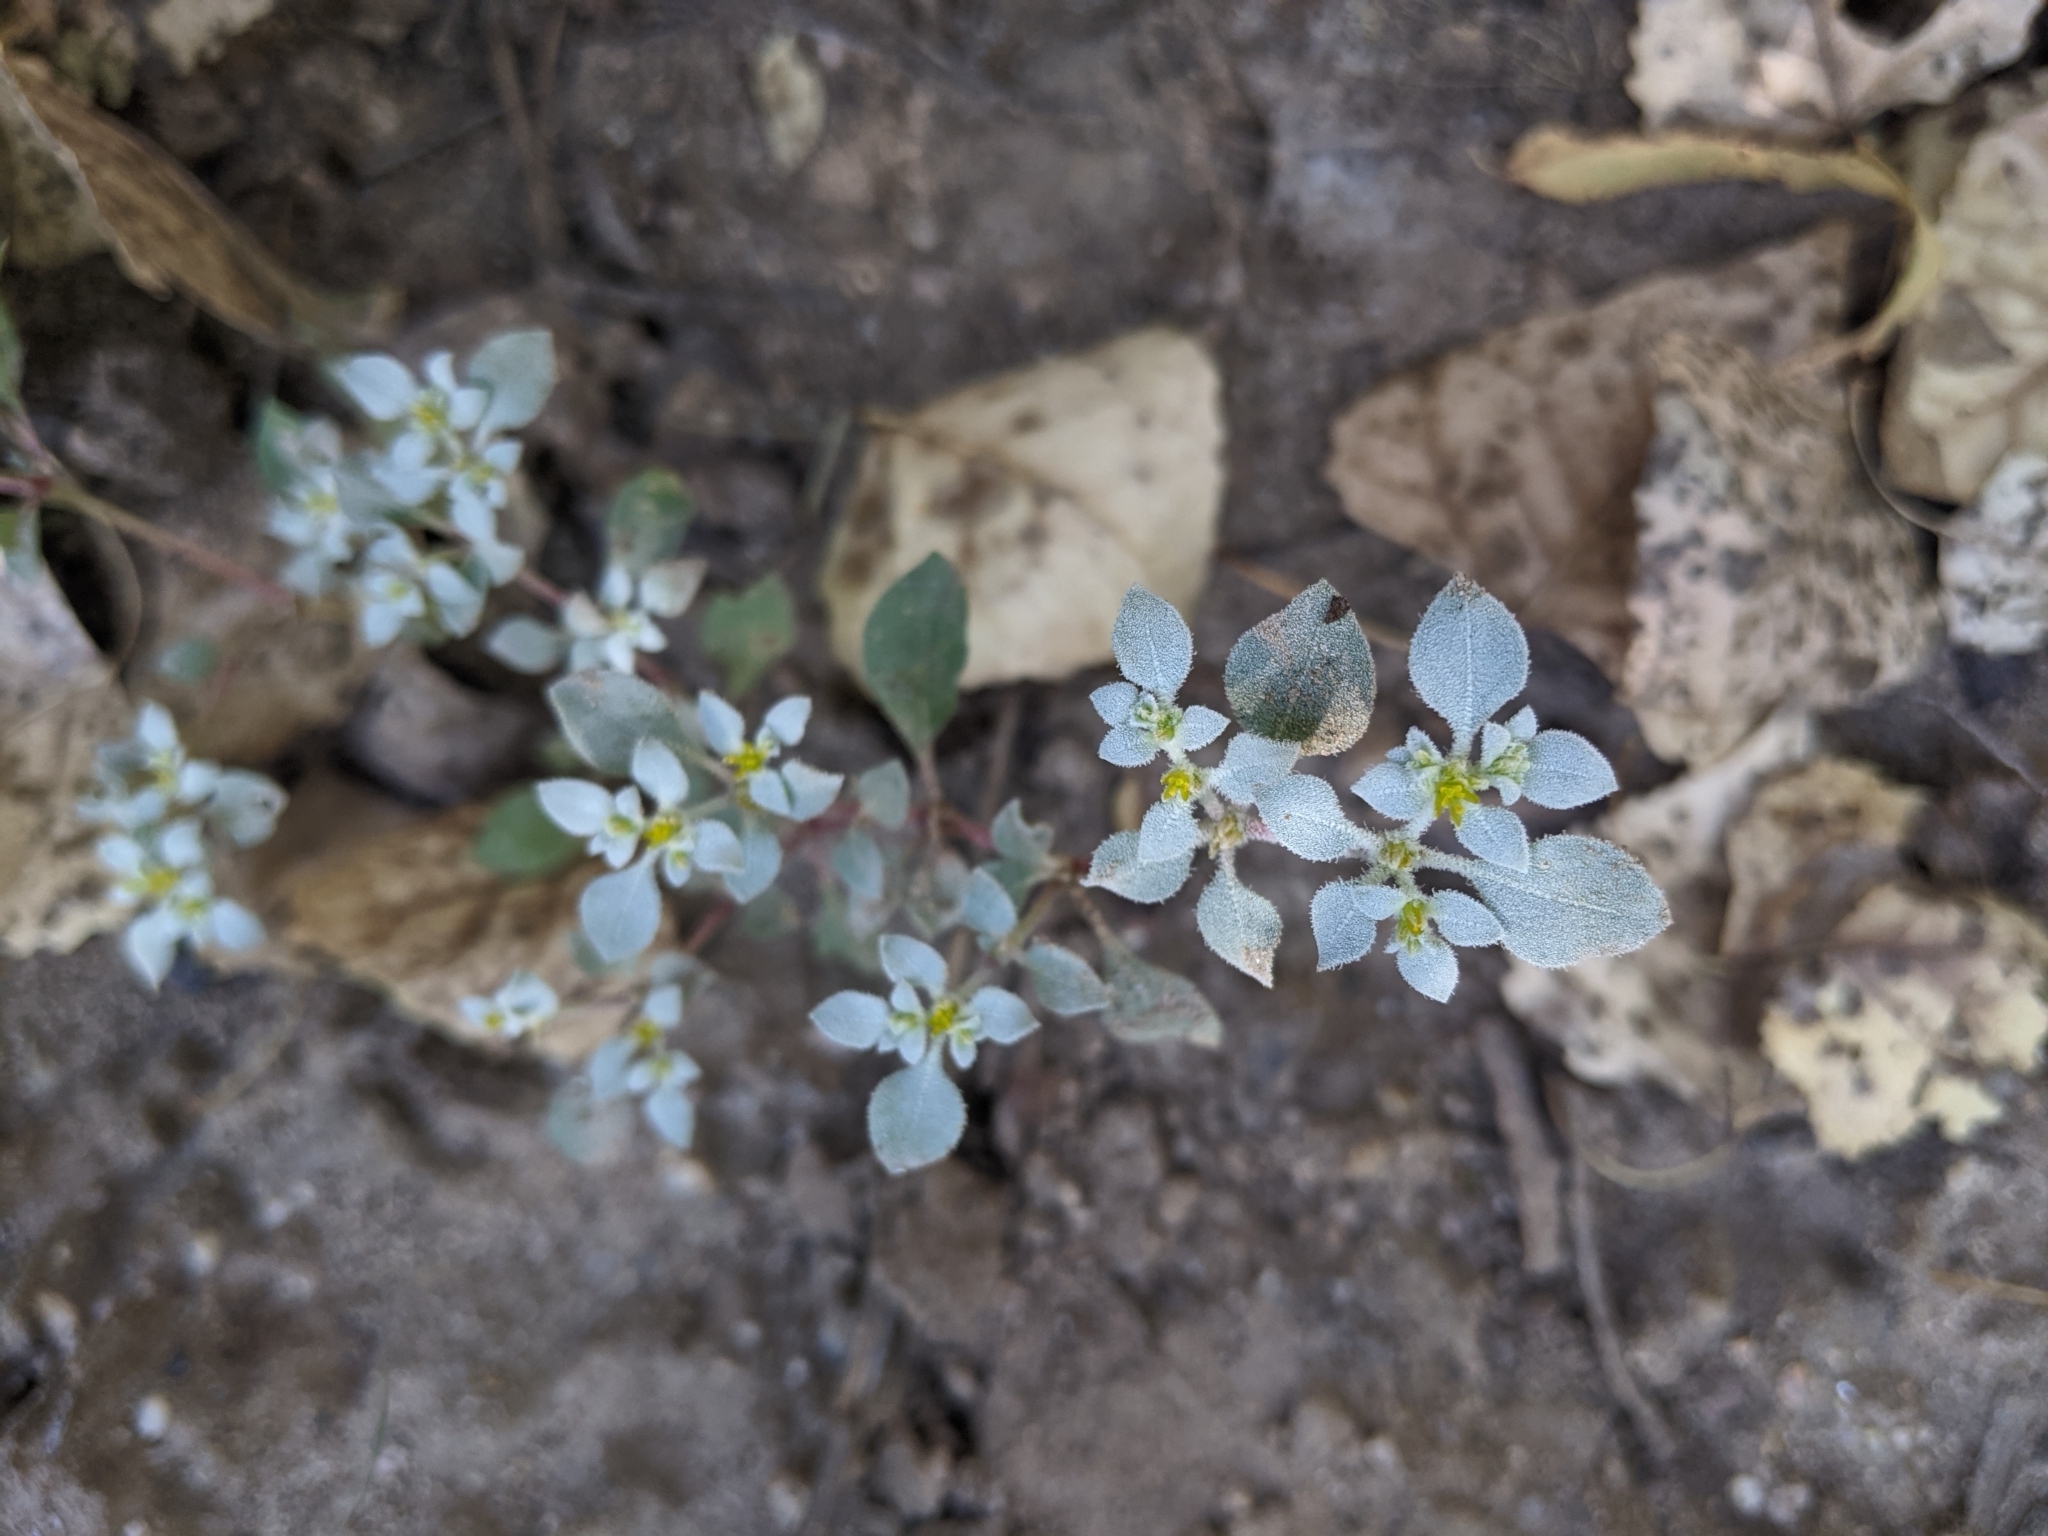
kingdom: Plantae
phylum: Tracheophyta
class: Magnoliopsida
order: Caryophyllales
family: Amaranthaceae
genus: Tidestromia
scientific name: Tidestromia lanuginosa
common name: Woolly tidestromia
